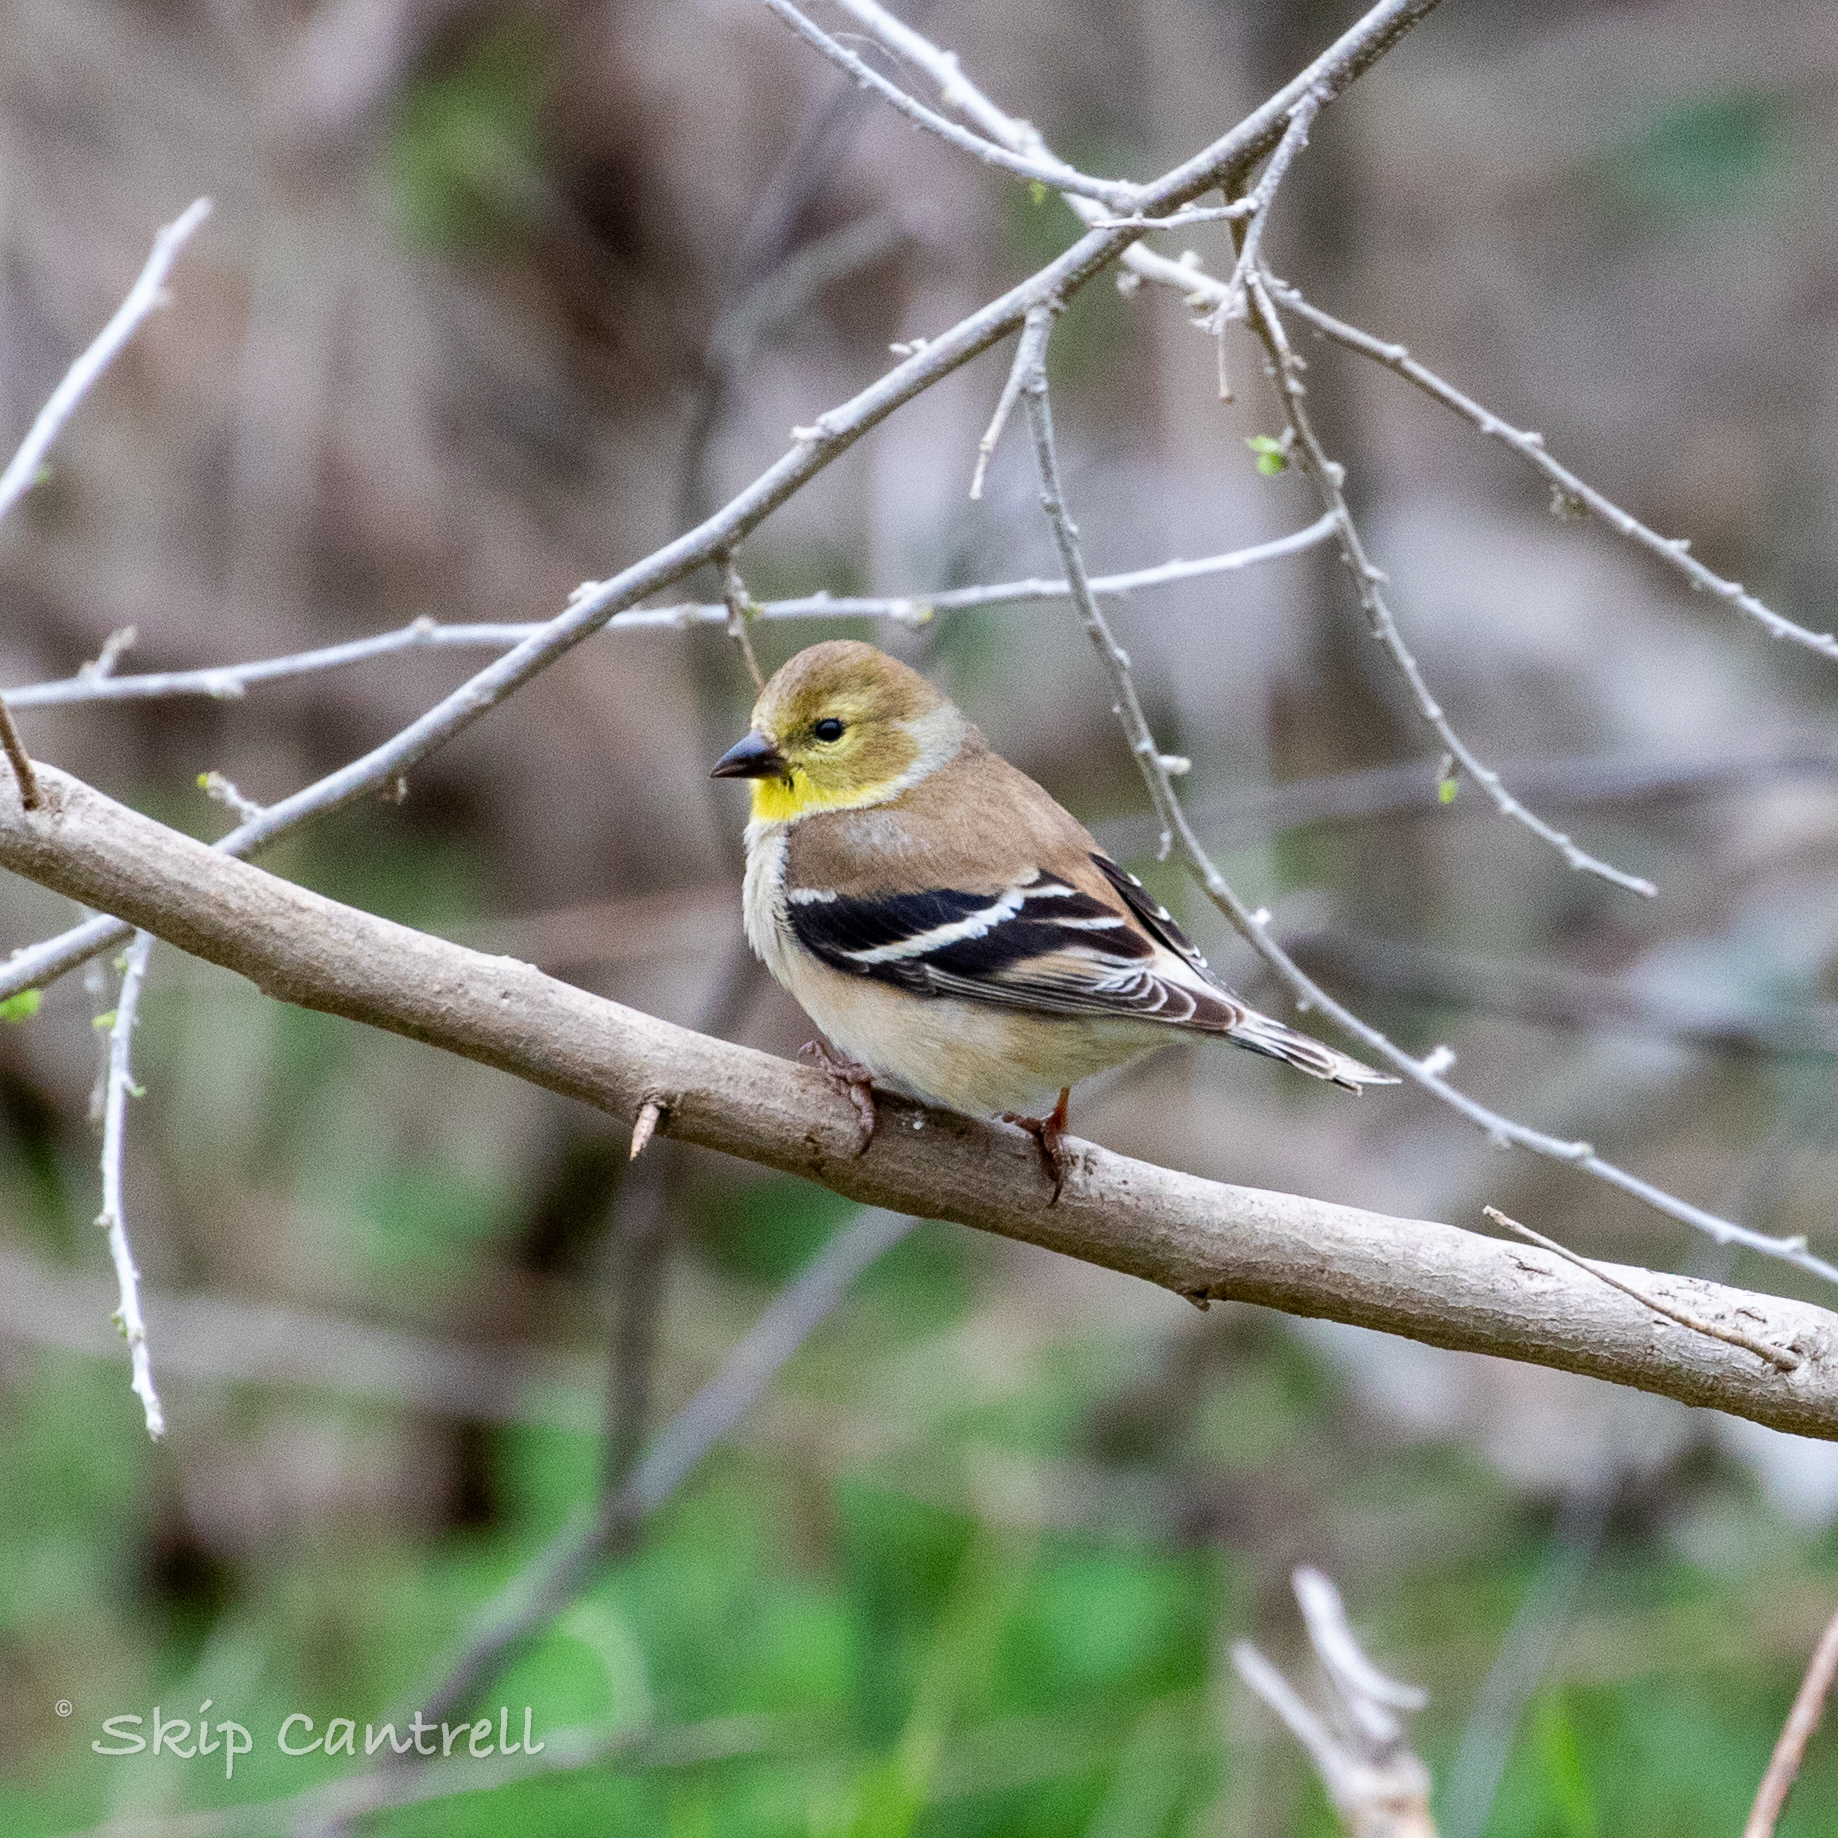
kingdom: Animalia
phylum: Chordata
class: Aves
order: Passeriformes
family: Fringillidae
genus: Spinus
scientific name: Spinus tristis
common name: American goldfinch
